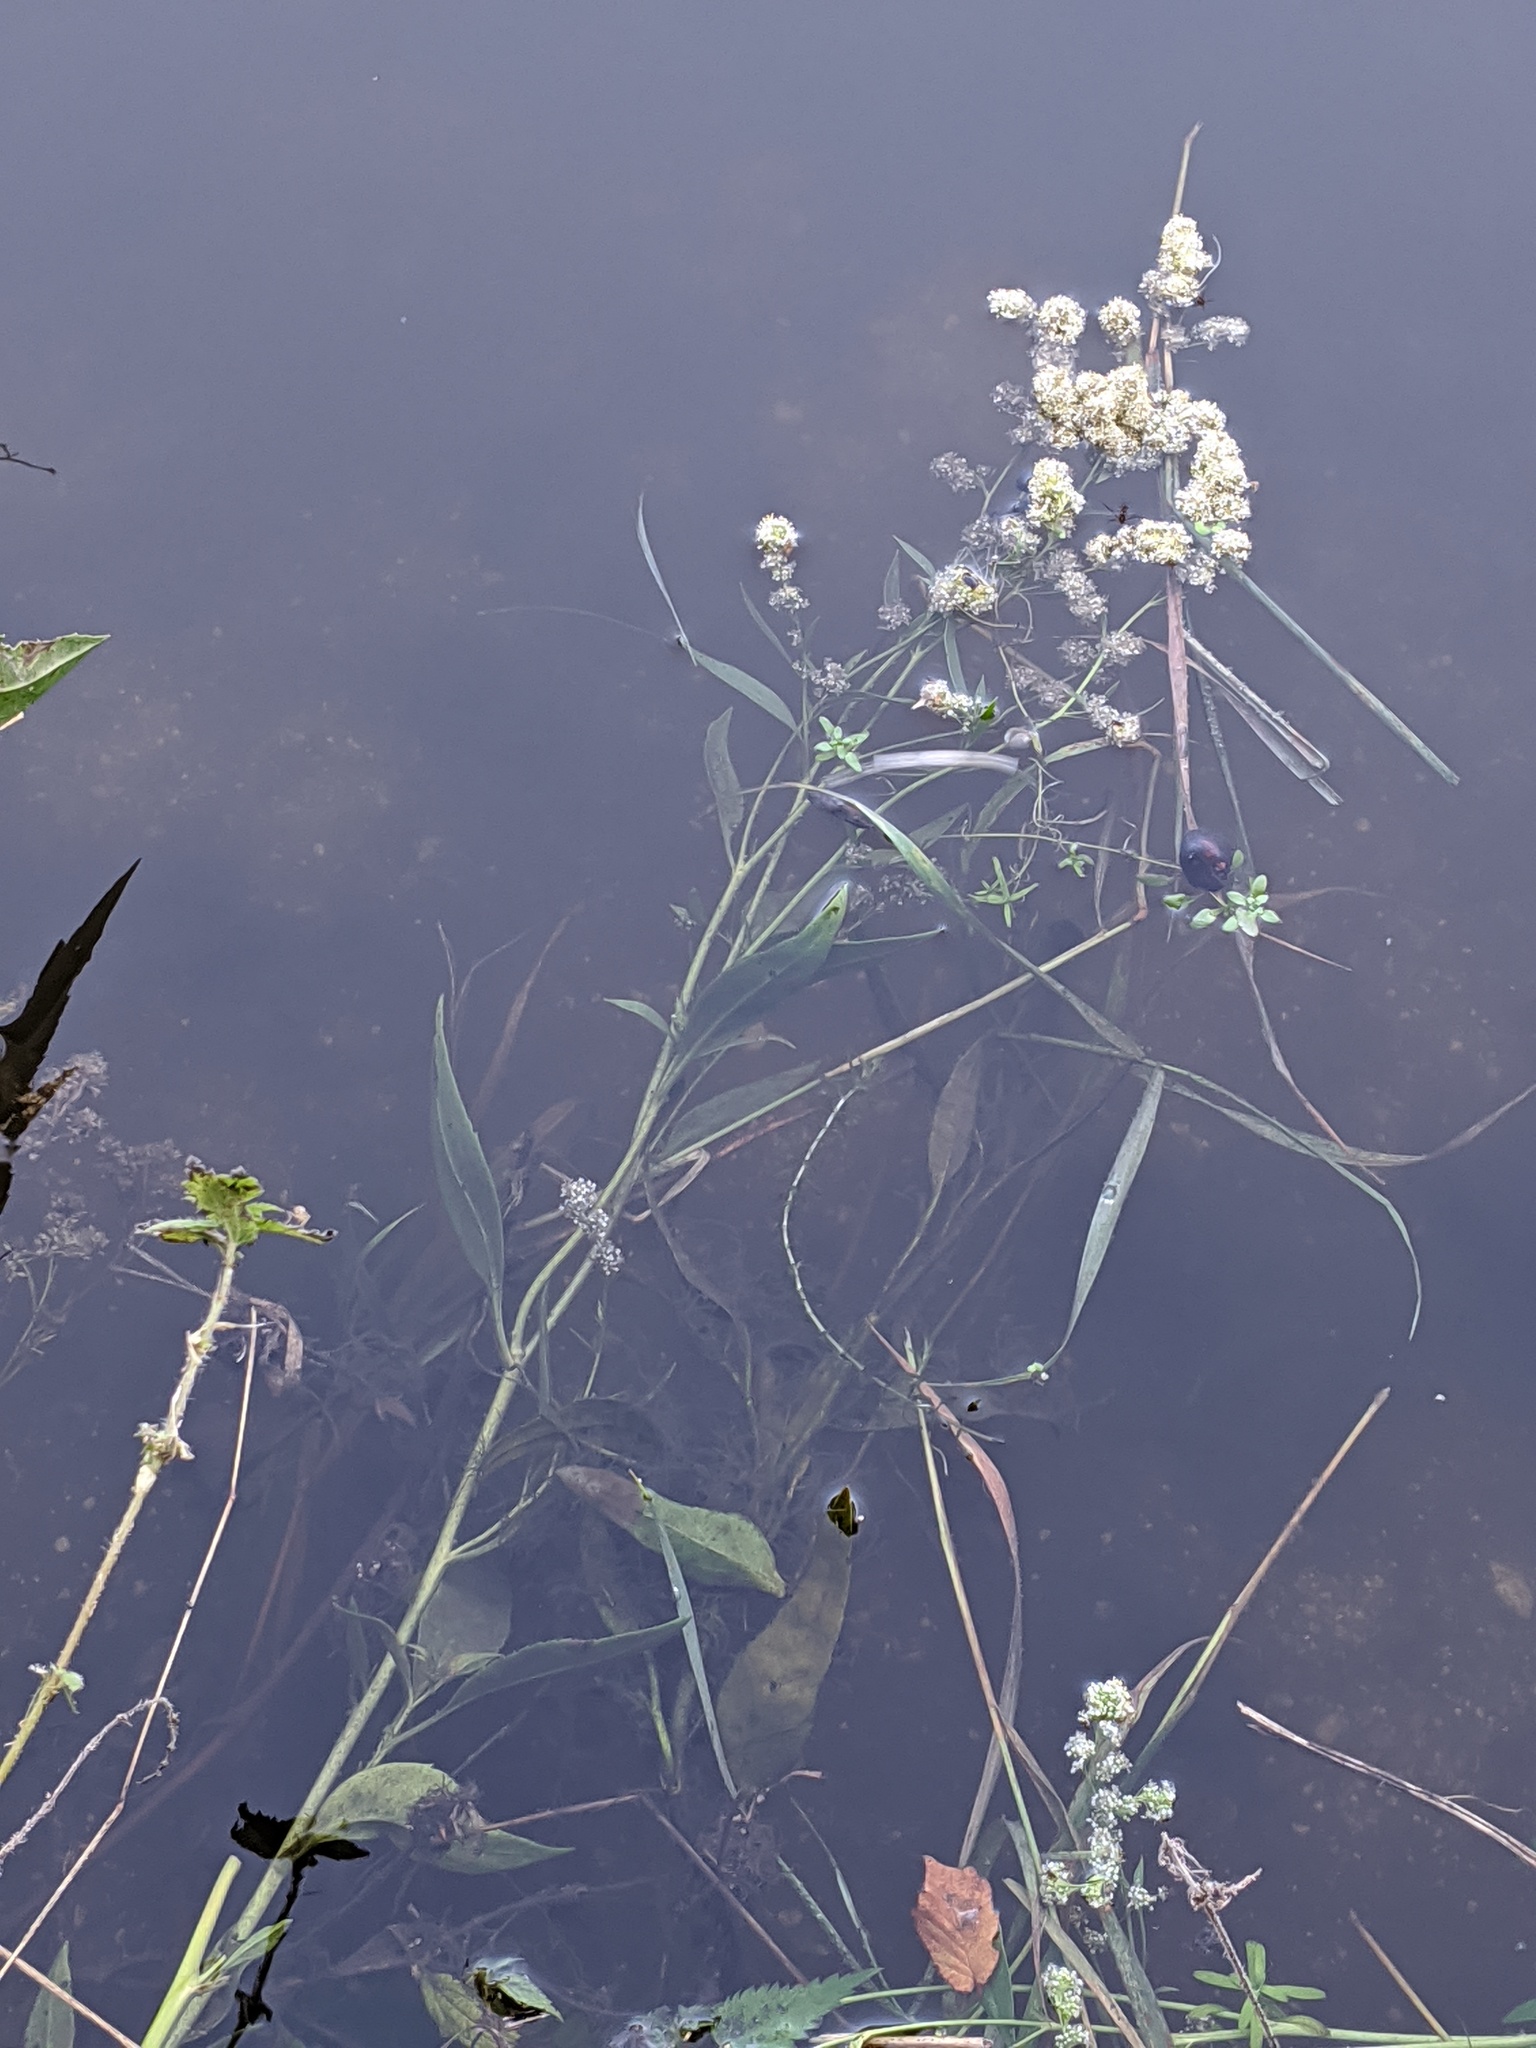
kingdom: Plantae
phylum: Tracheophyta
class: Magnoliopsida
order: Brassicales
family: Brassicaceae
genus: Lepidium
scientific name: Lepidium latifolium
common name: Dittander
